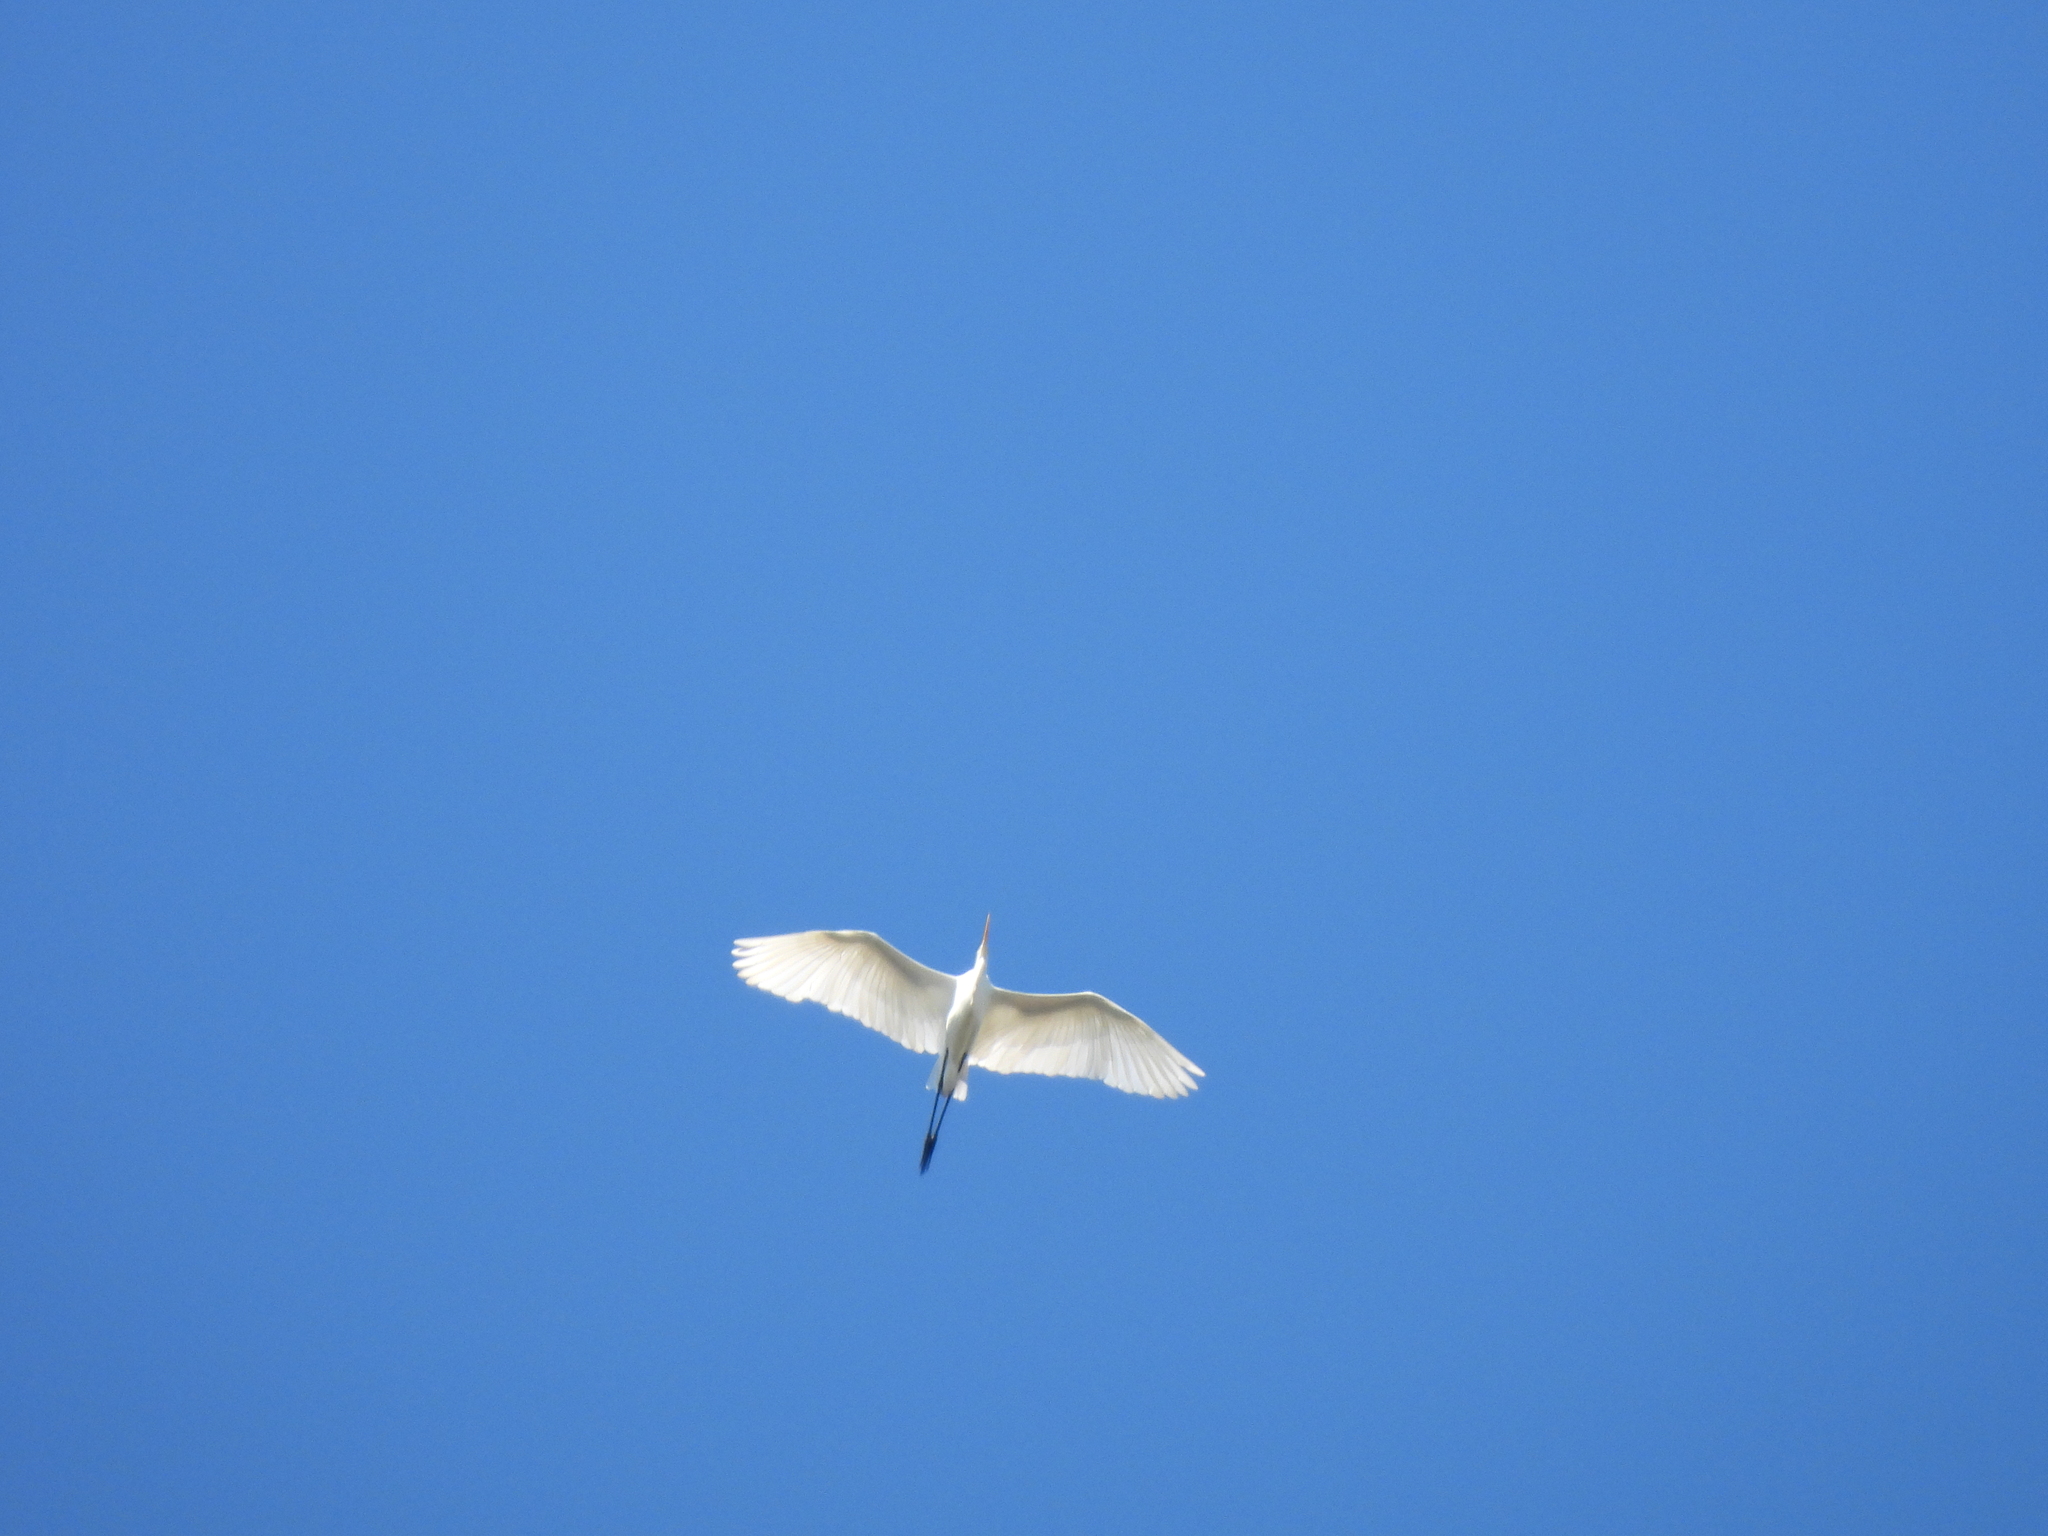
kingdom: Animalia
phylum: Chordata
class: Aves
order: Pelecaniformes
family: Ardeidae
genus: Ardea
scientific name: Ardea alba
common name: Great egret
